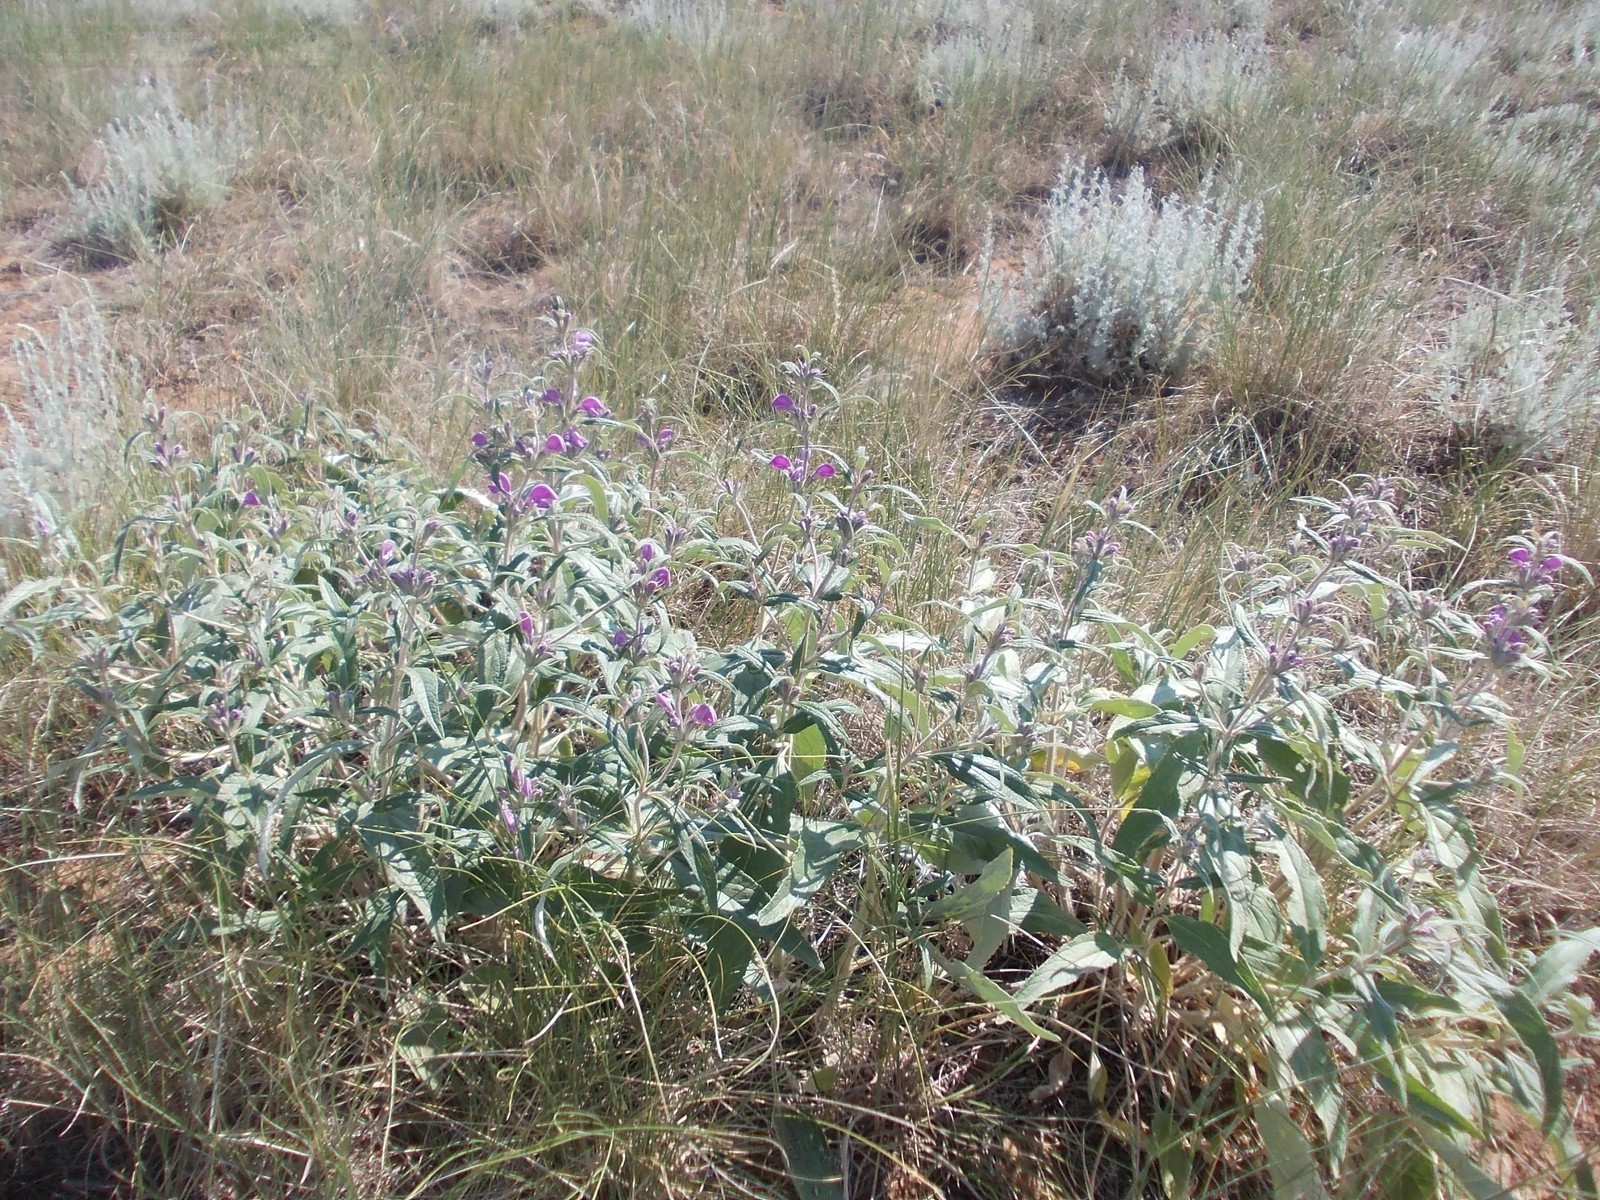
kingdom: Plantae
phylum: Tracheophyta
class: Magnoliopsida
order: Lamiales
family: Lamiaceae
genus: Phlomis
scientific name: Phlomis herba-venti
